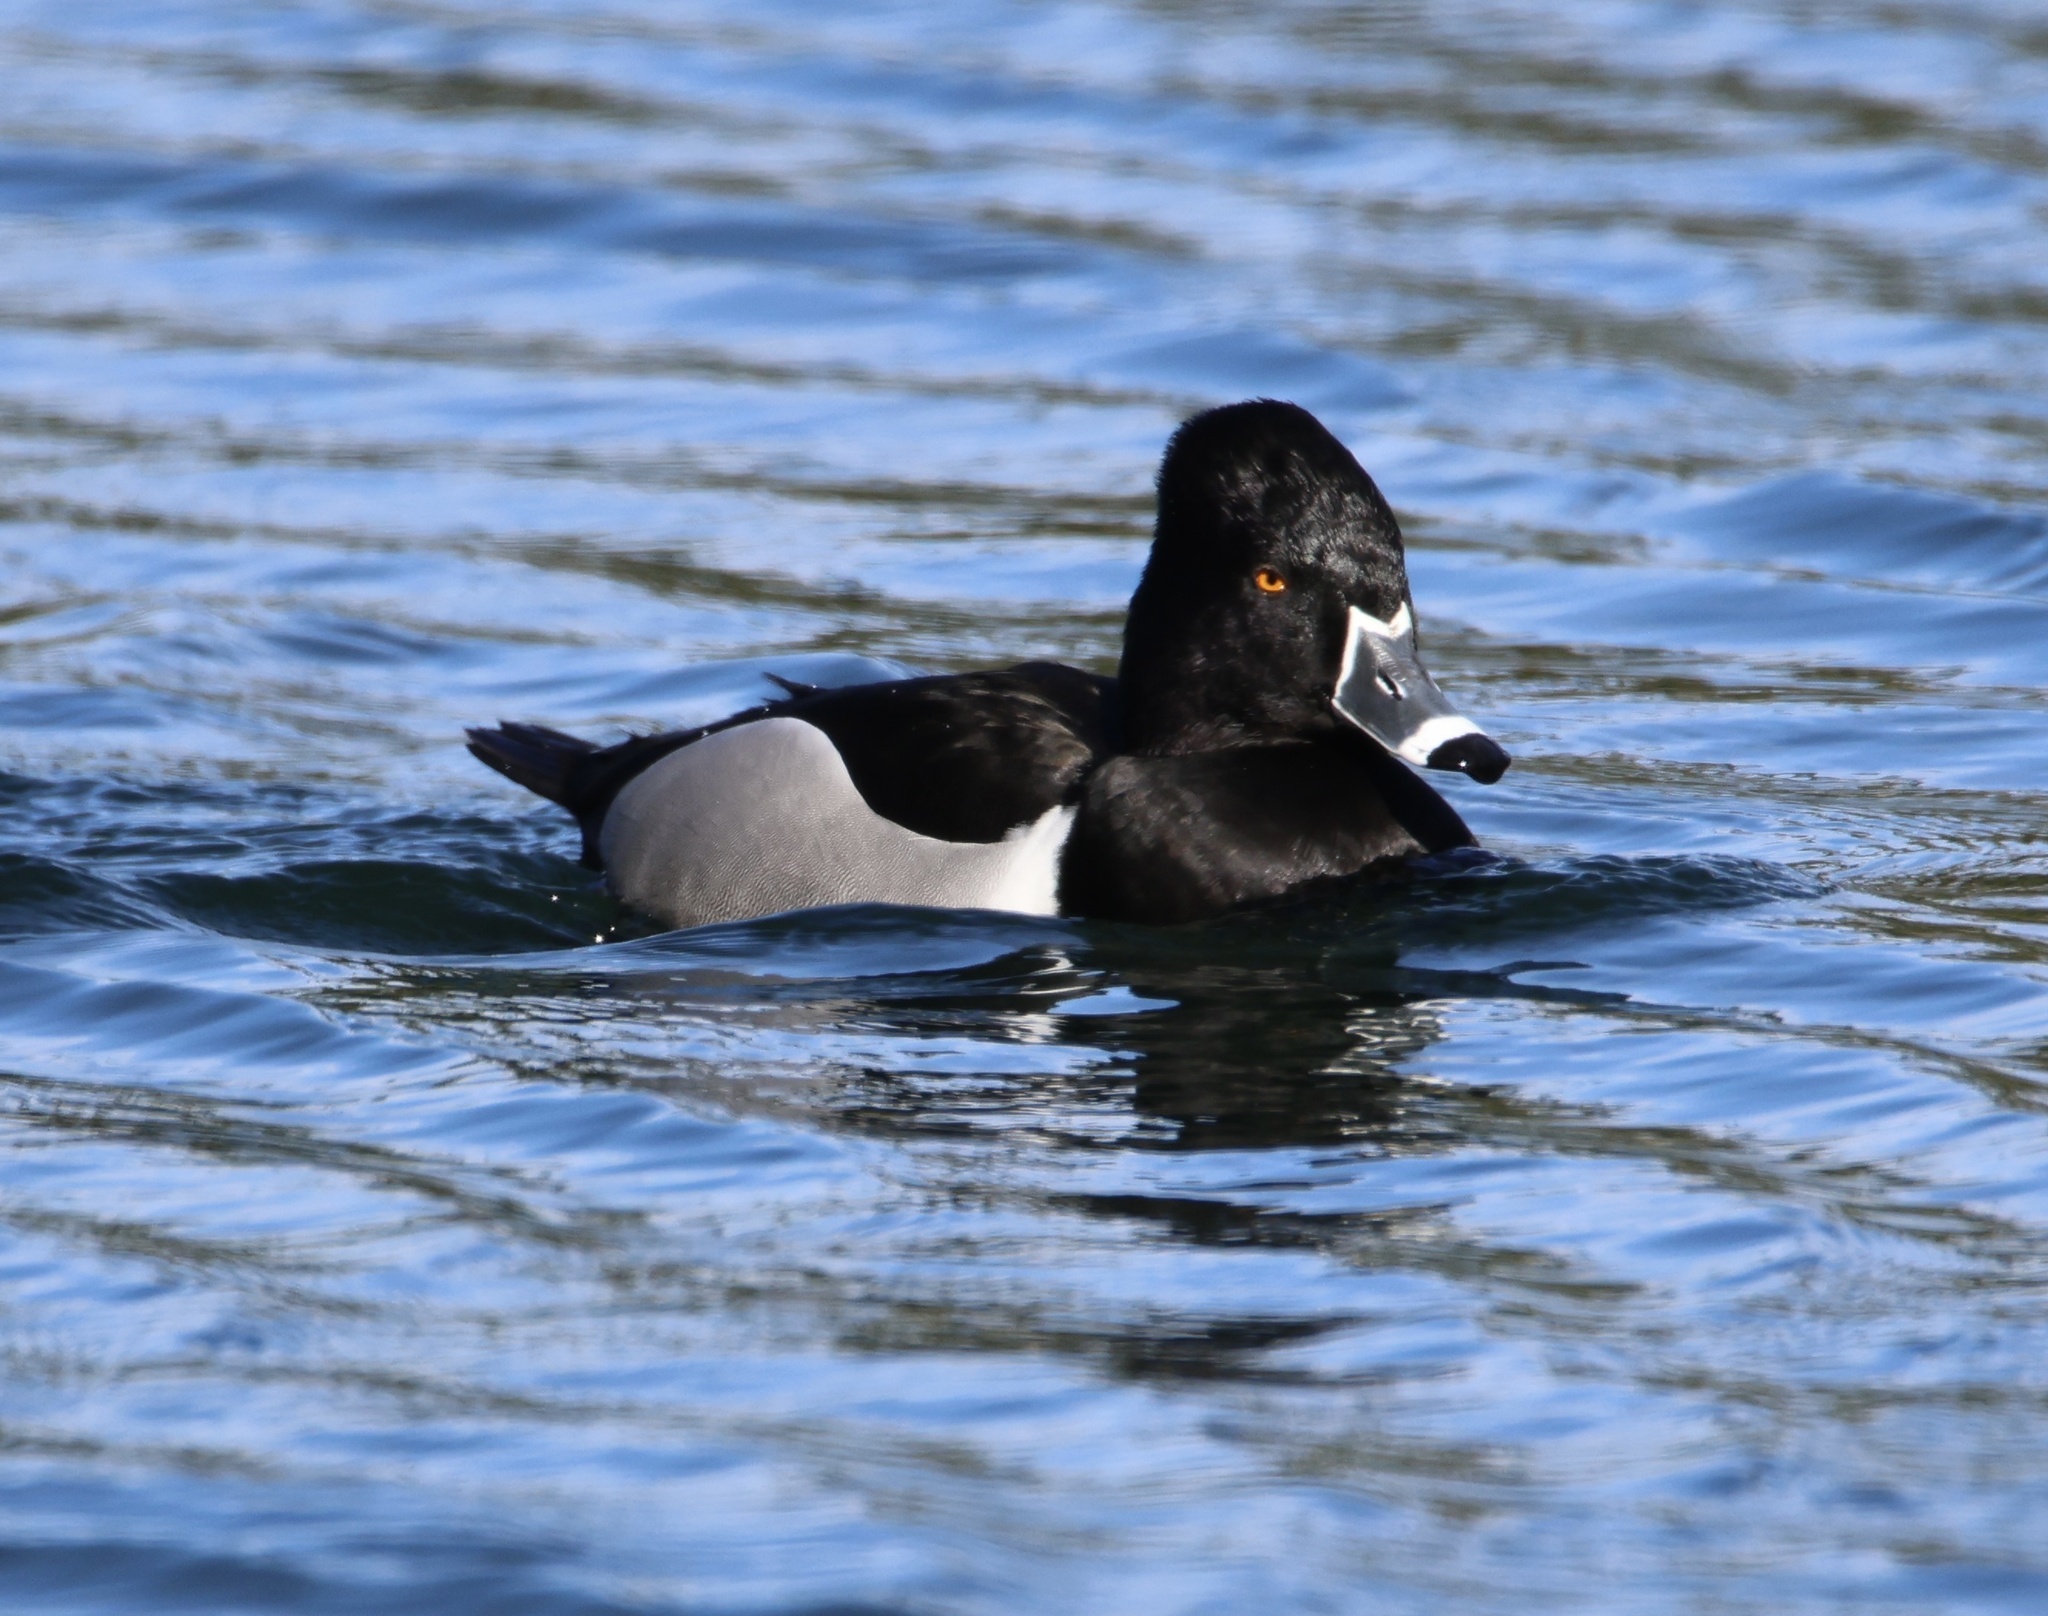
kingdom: Animalia
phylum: Chordata
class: Aves
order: Anseriformes
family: Anatidae
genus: Aythya
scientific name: Aythya collaris
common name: Ring-necked duck
